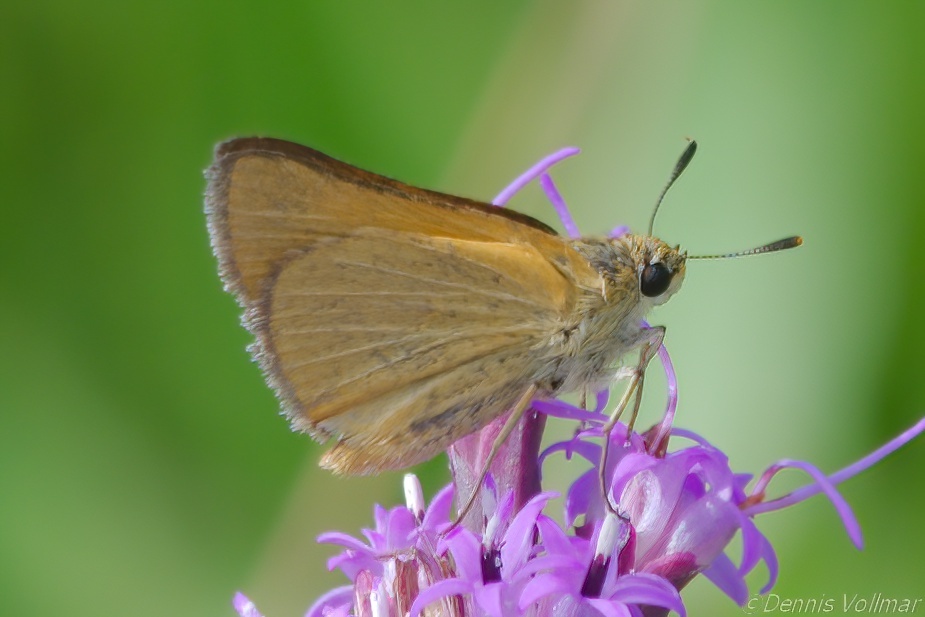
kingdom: Animalia
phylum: Arthropoda
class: Insecta
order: Lepidoptera
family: Hesperiidae
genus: Atrytone
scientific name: Atrytone arogos
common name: Arogos skipper
